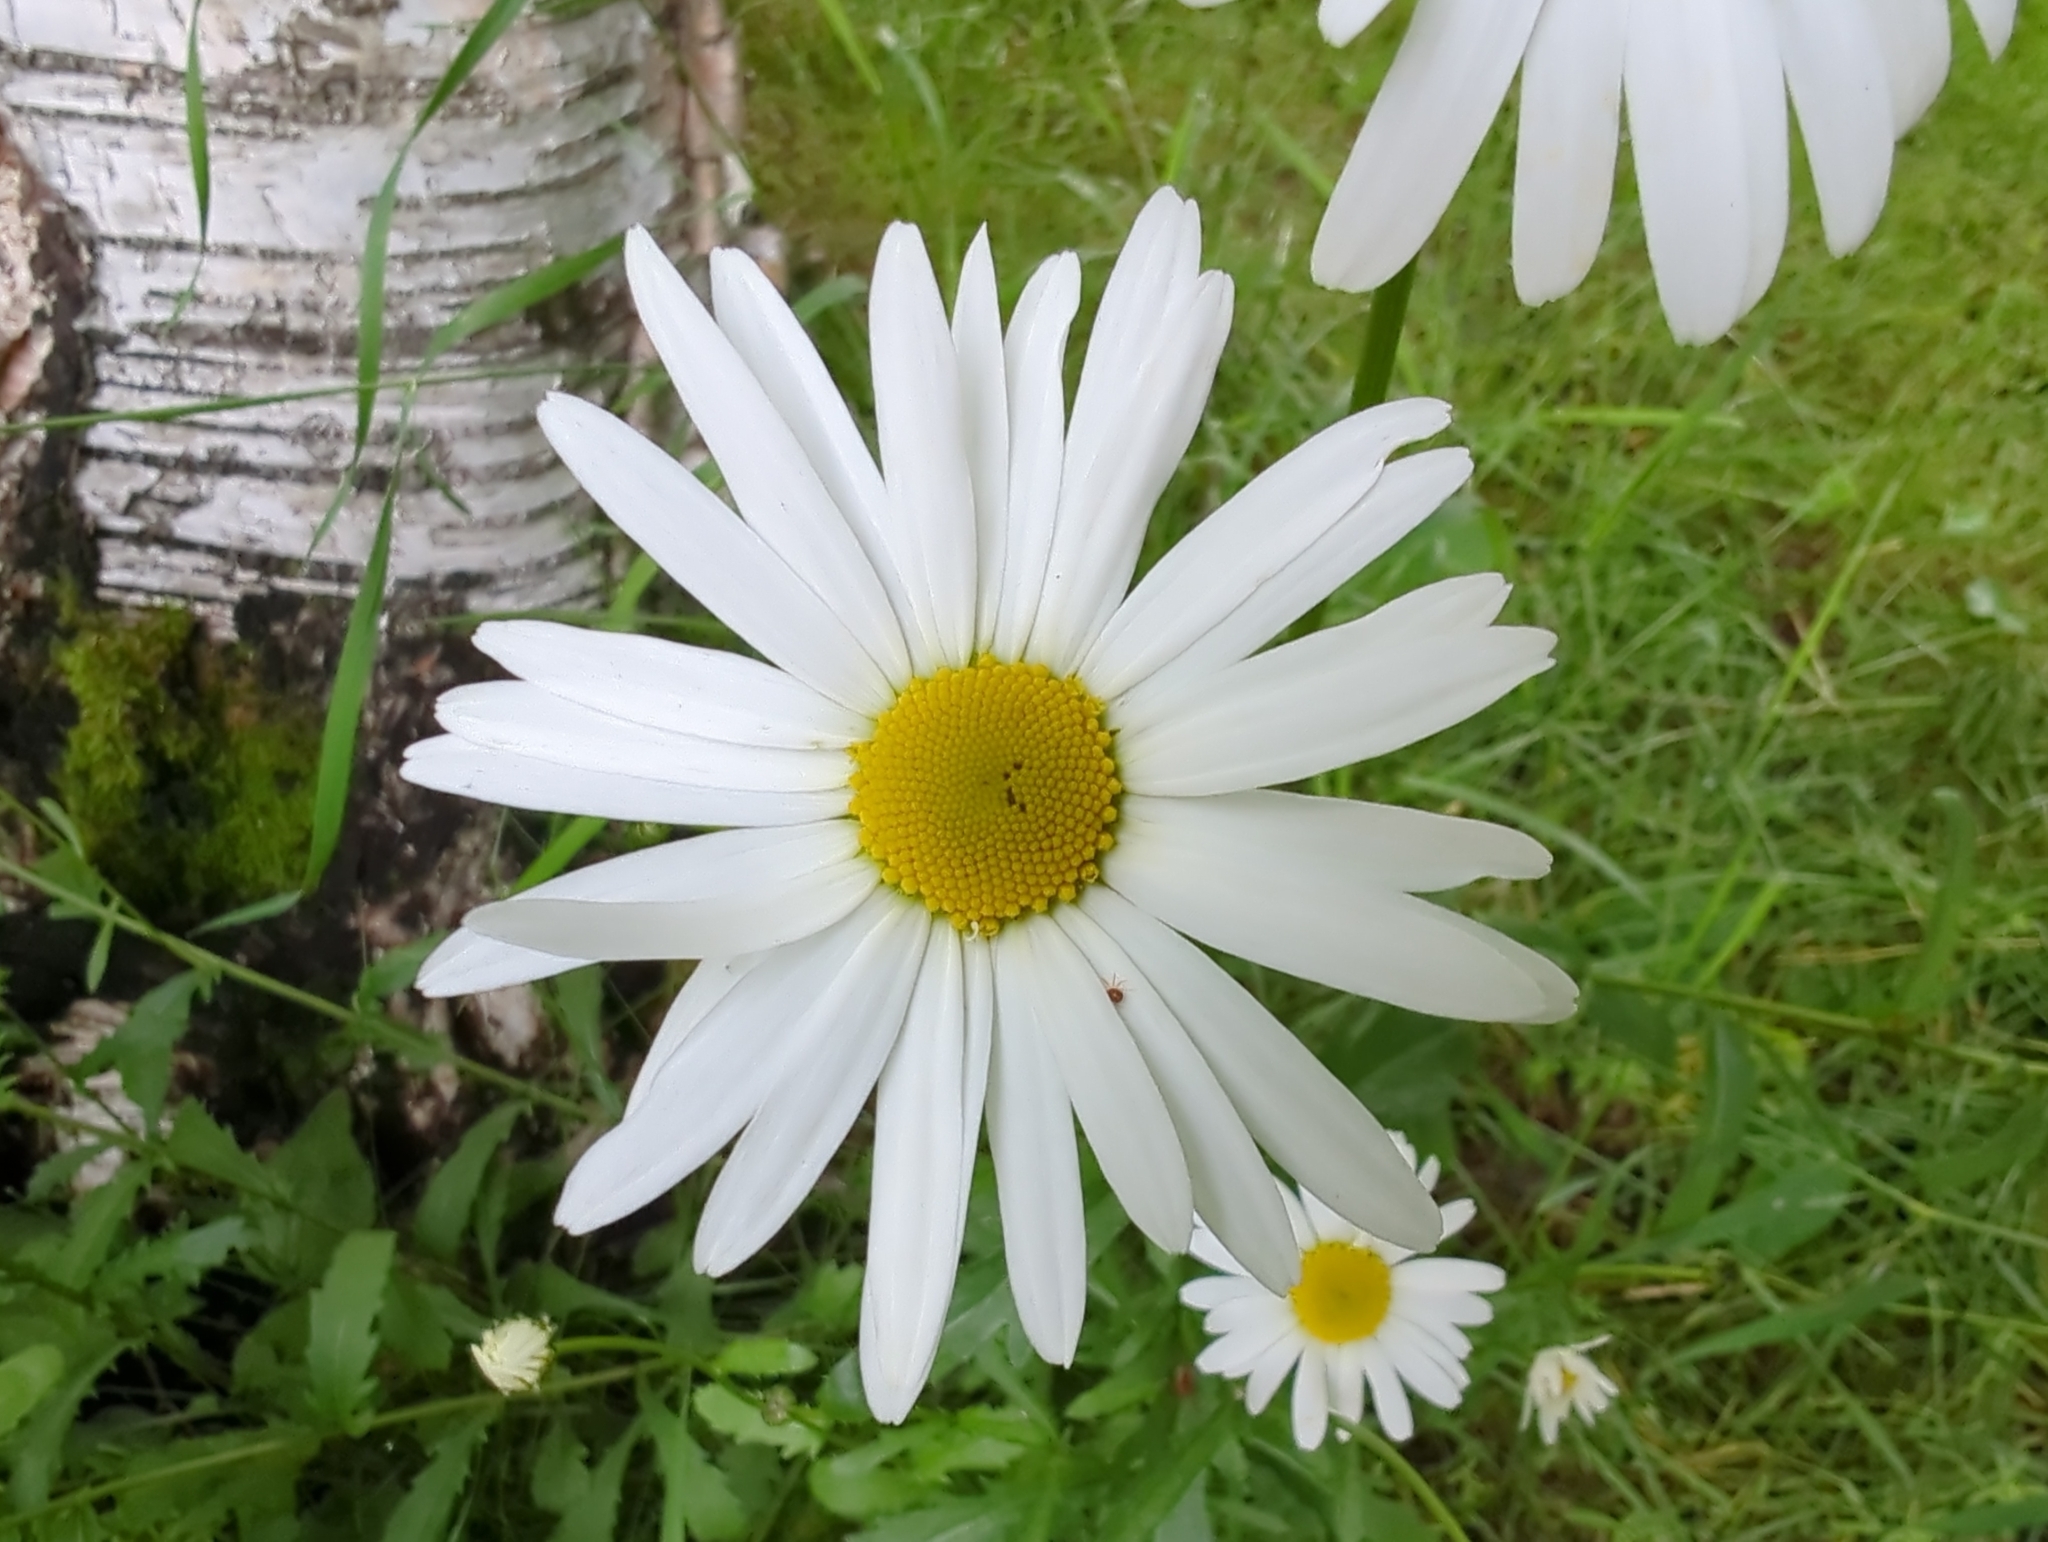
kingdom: Plantae
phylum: Tracheophyta
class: Magnoliopsida
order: Asterales
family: Asteraceae
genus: Leucanthemum
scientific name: Leucanthemum vulgare
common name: Oxeye daisy
